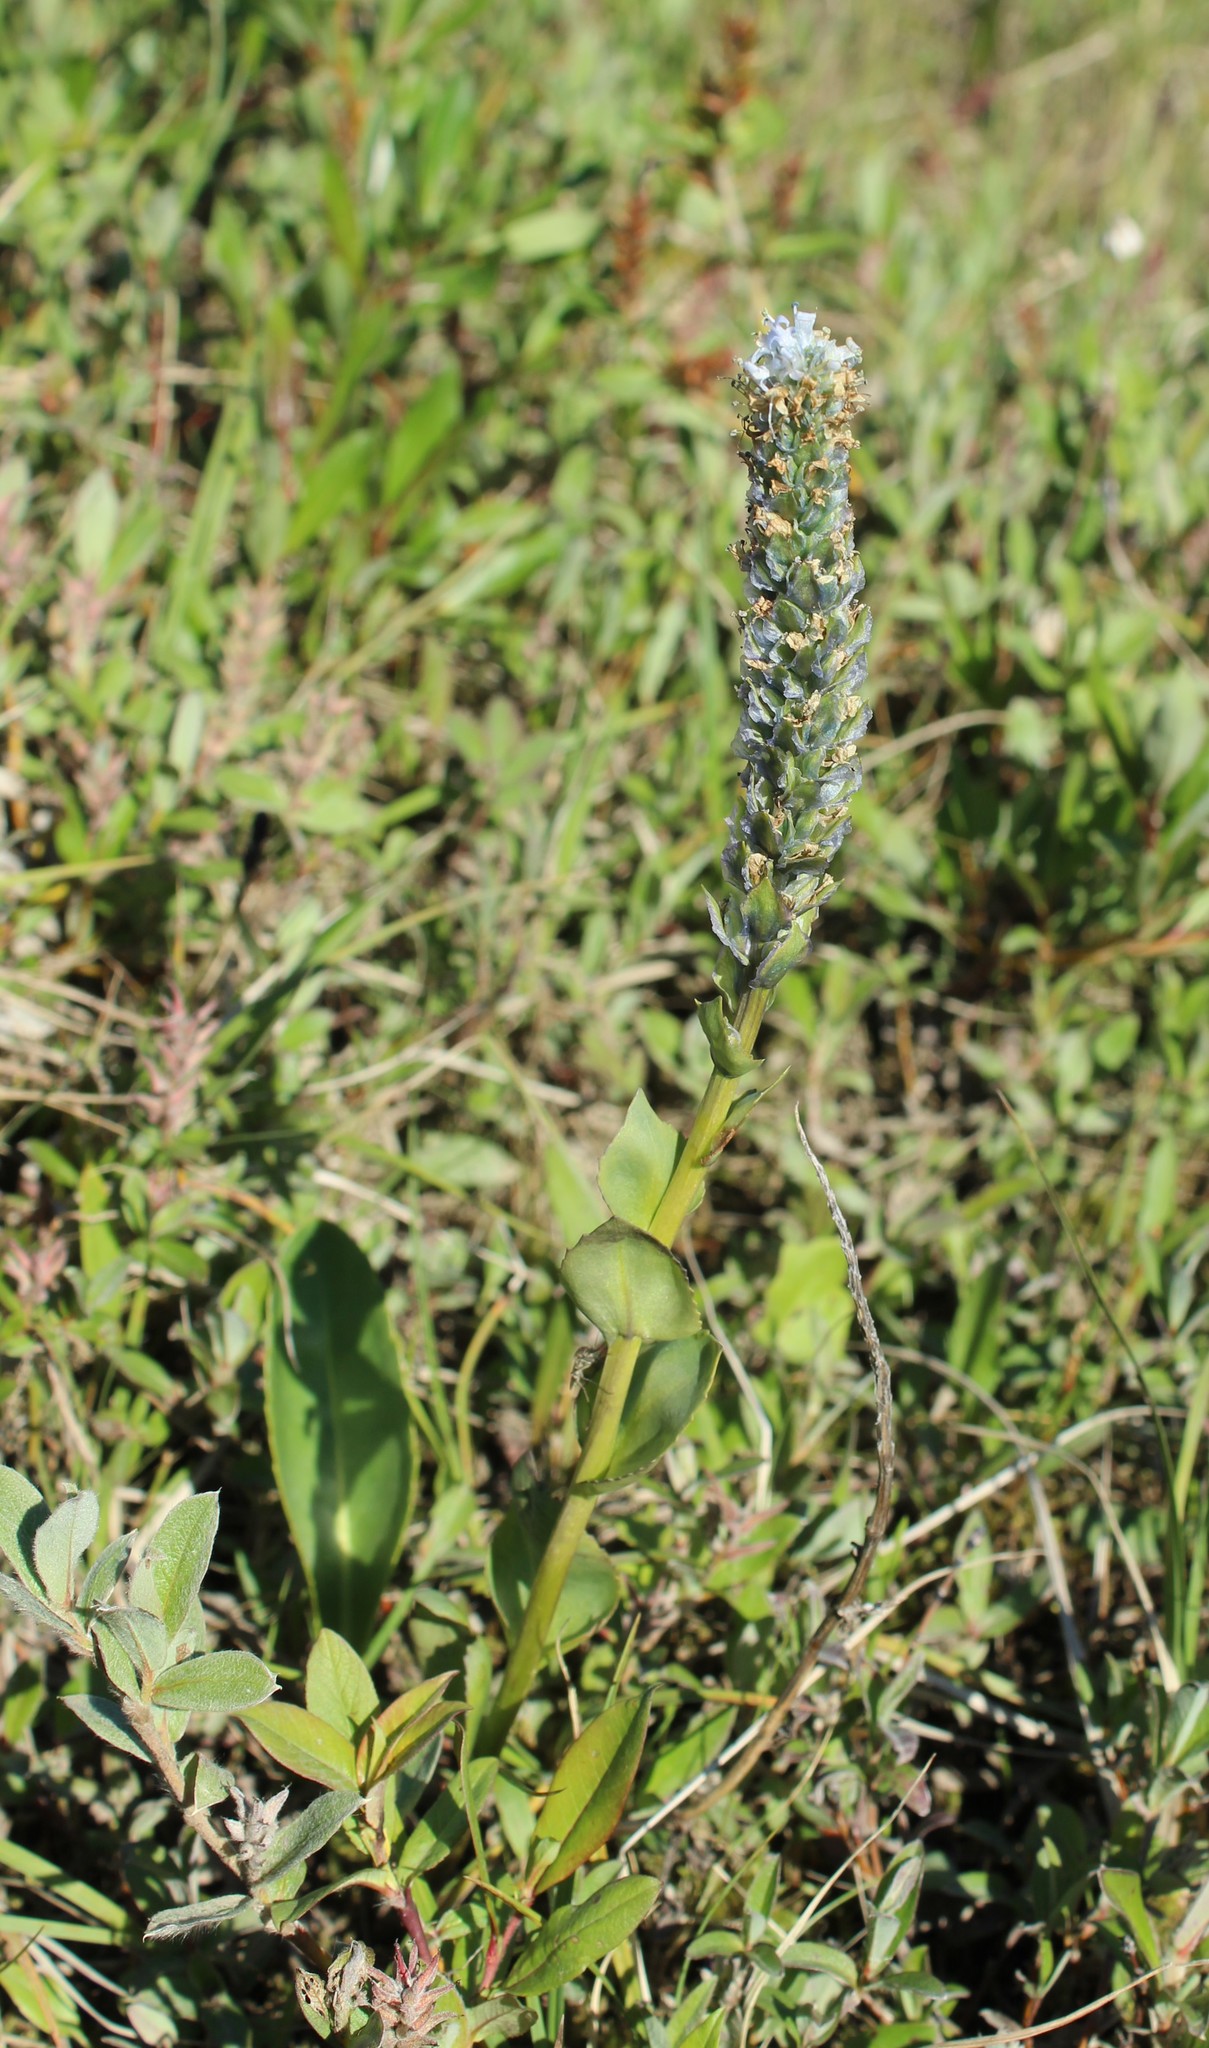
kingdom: Plantae
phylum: Tracheophyta
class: Magnoliopsida
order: Lamiales
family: Plantaginaceae
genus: Lagotis
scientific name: Lagotis glauca
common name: Glaucous weaselsnout
